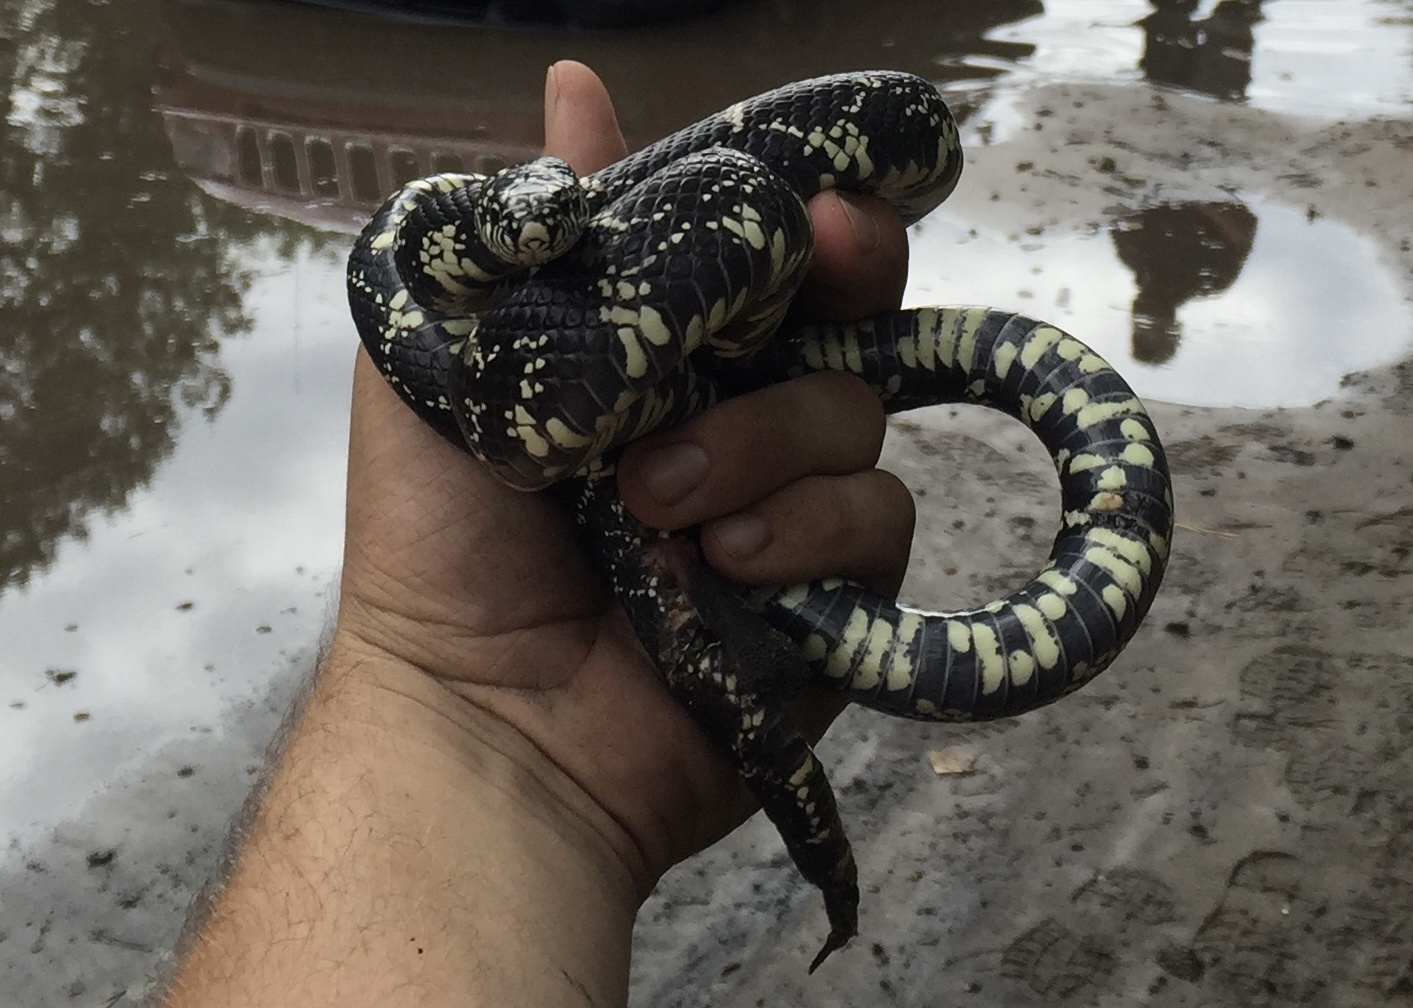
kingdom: Animalia
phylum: Chordata
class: Squamata
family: Colubridae
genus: Lampropeltis
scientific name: Lampropeltis getula
